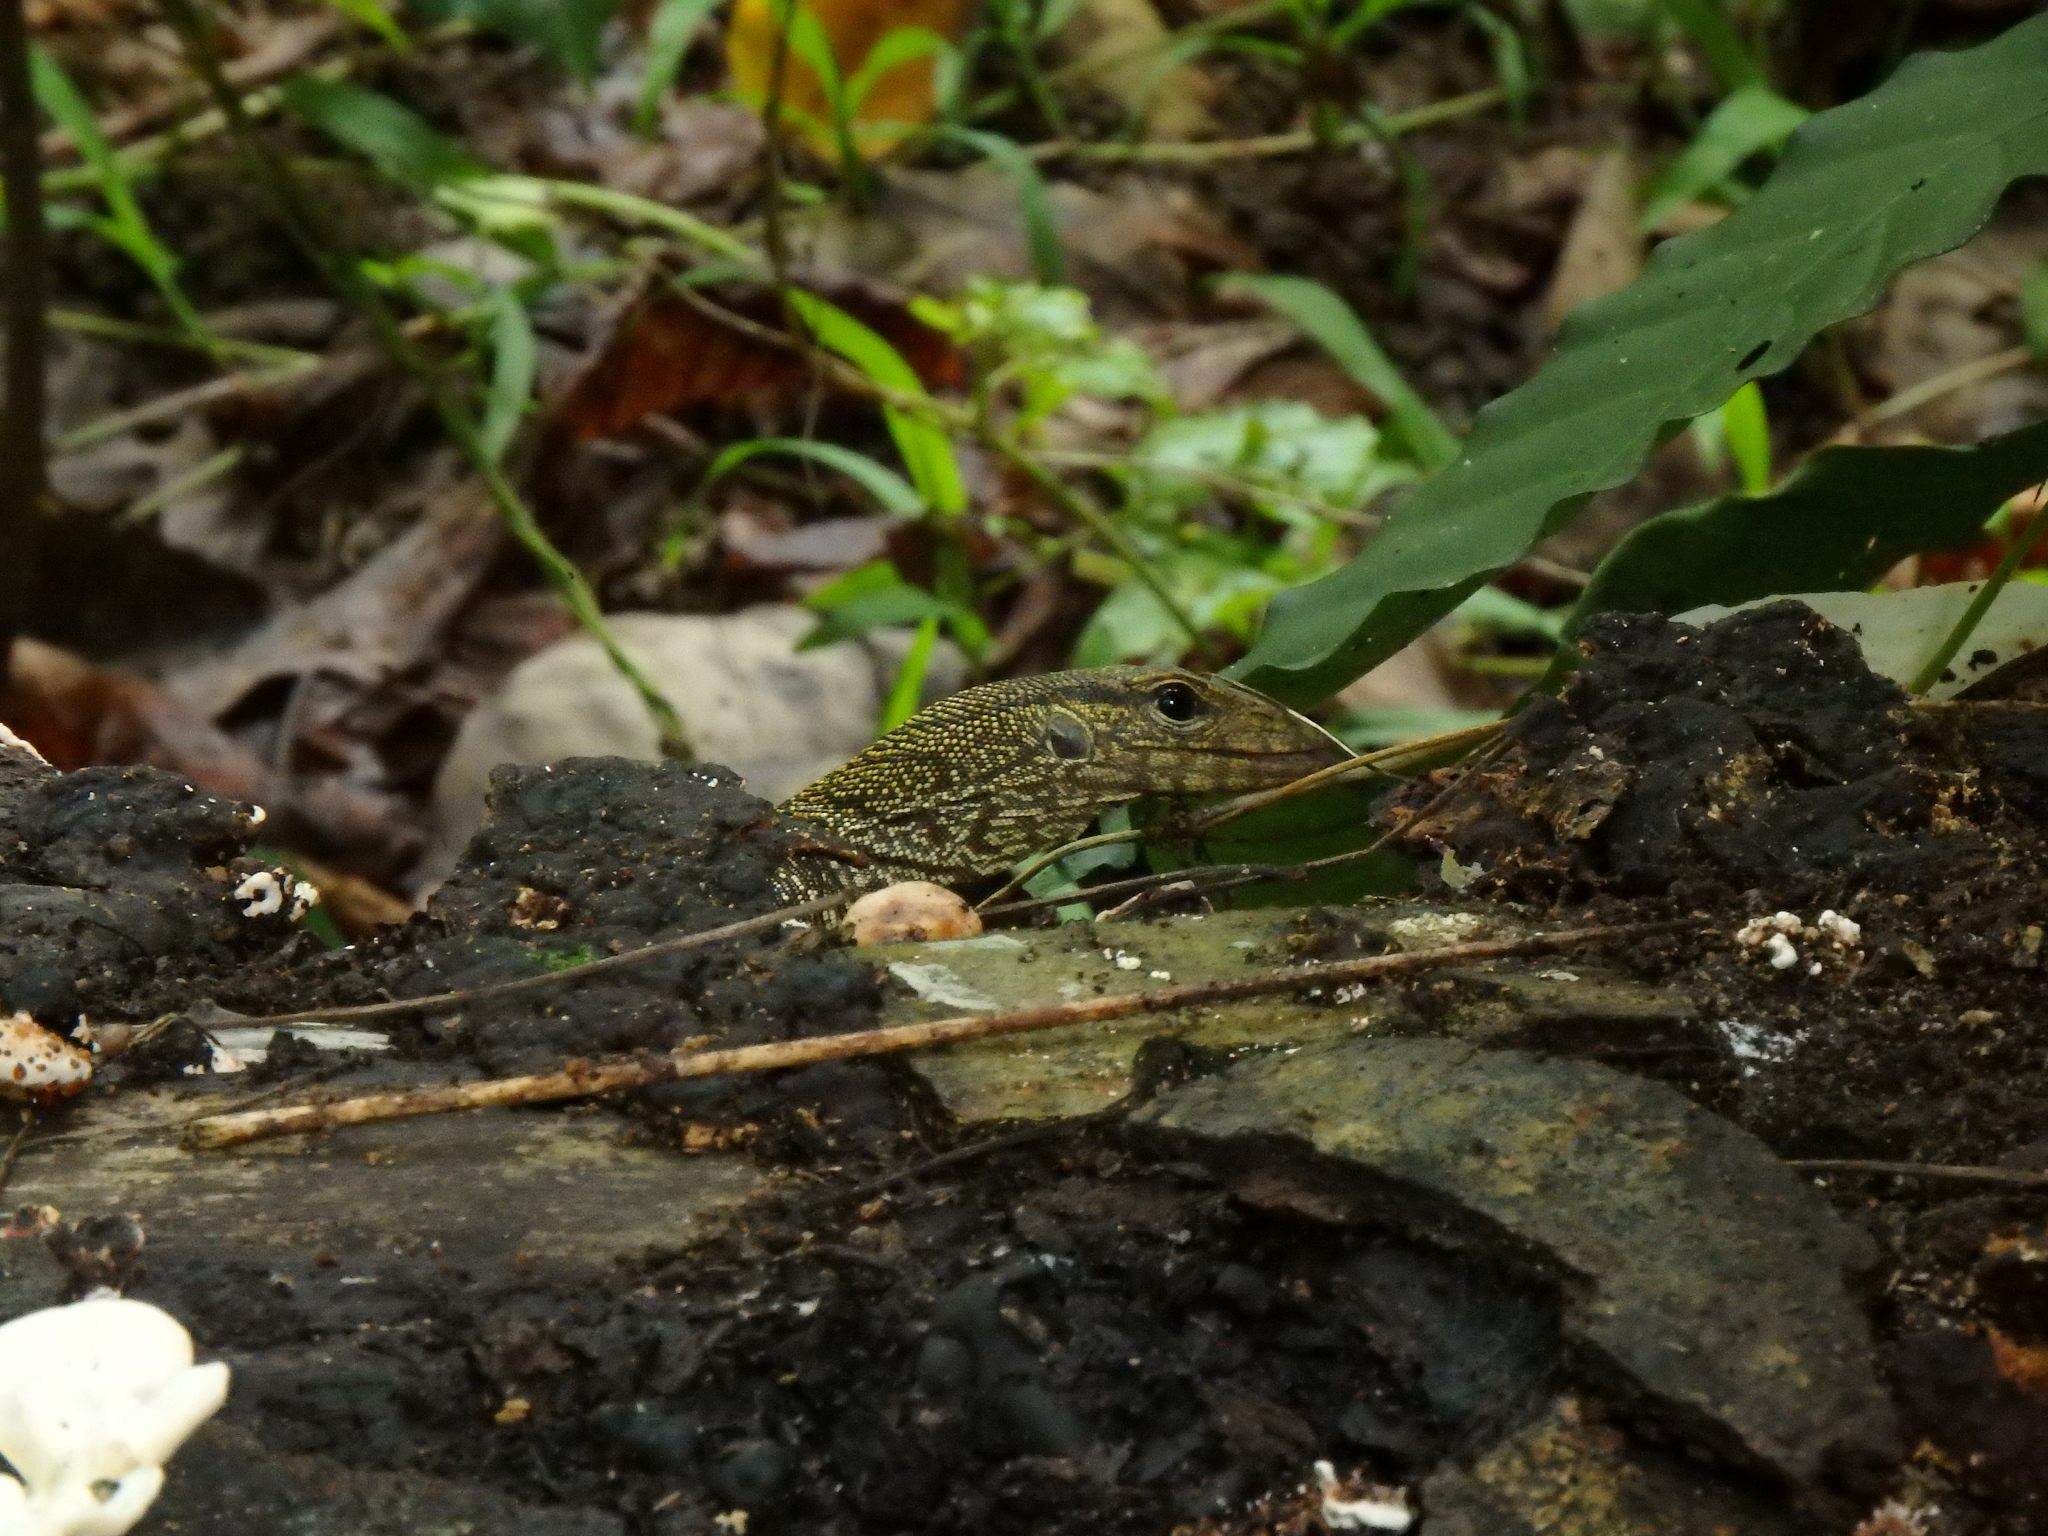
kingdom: Animalia
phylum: Chordata
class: Squamata
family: Varanidae
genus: Varanus
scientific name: Varanus nebulosus
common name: Clouded monitor
